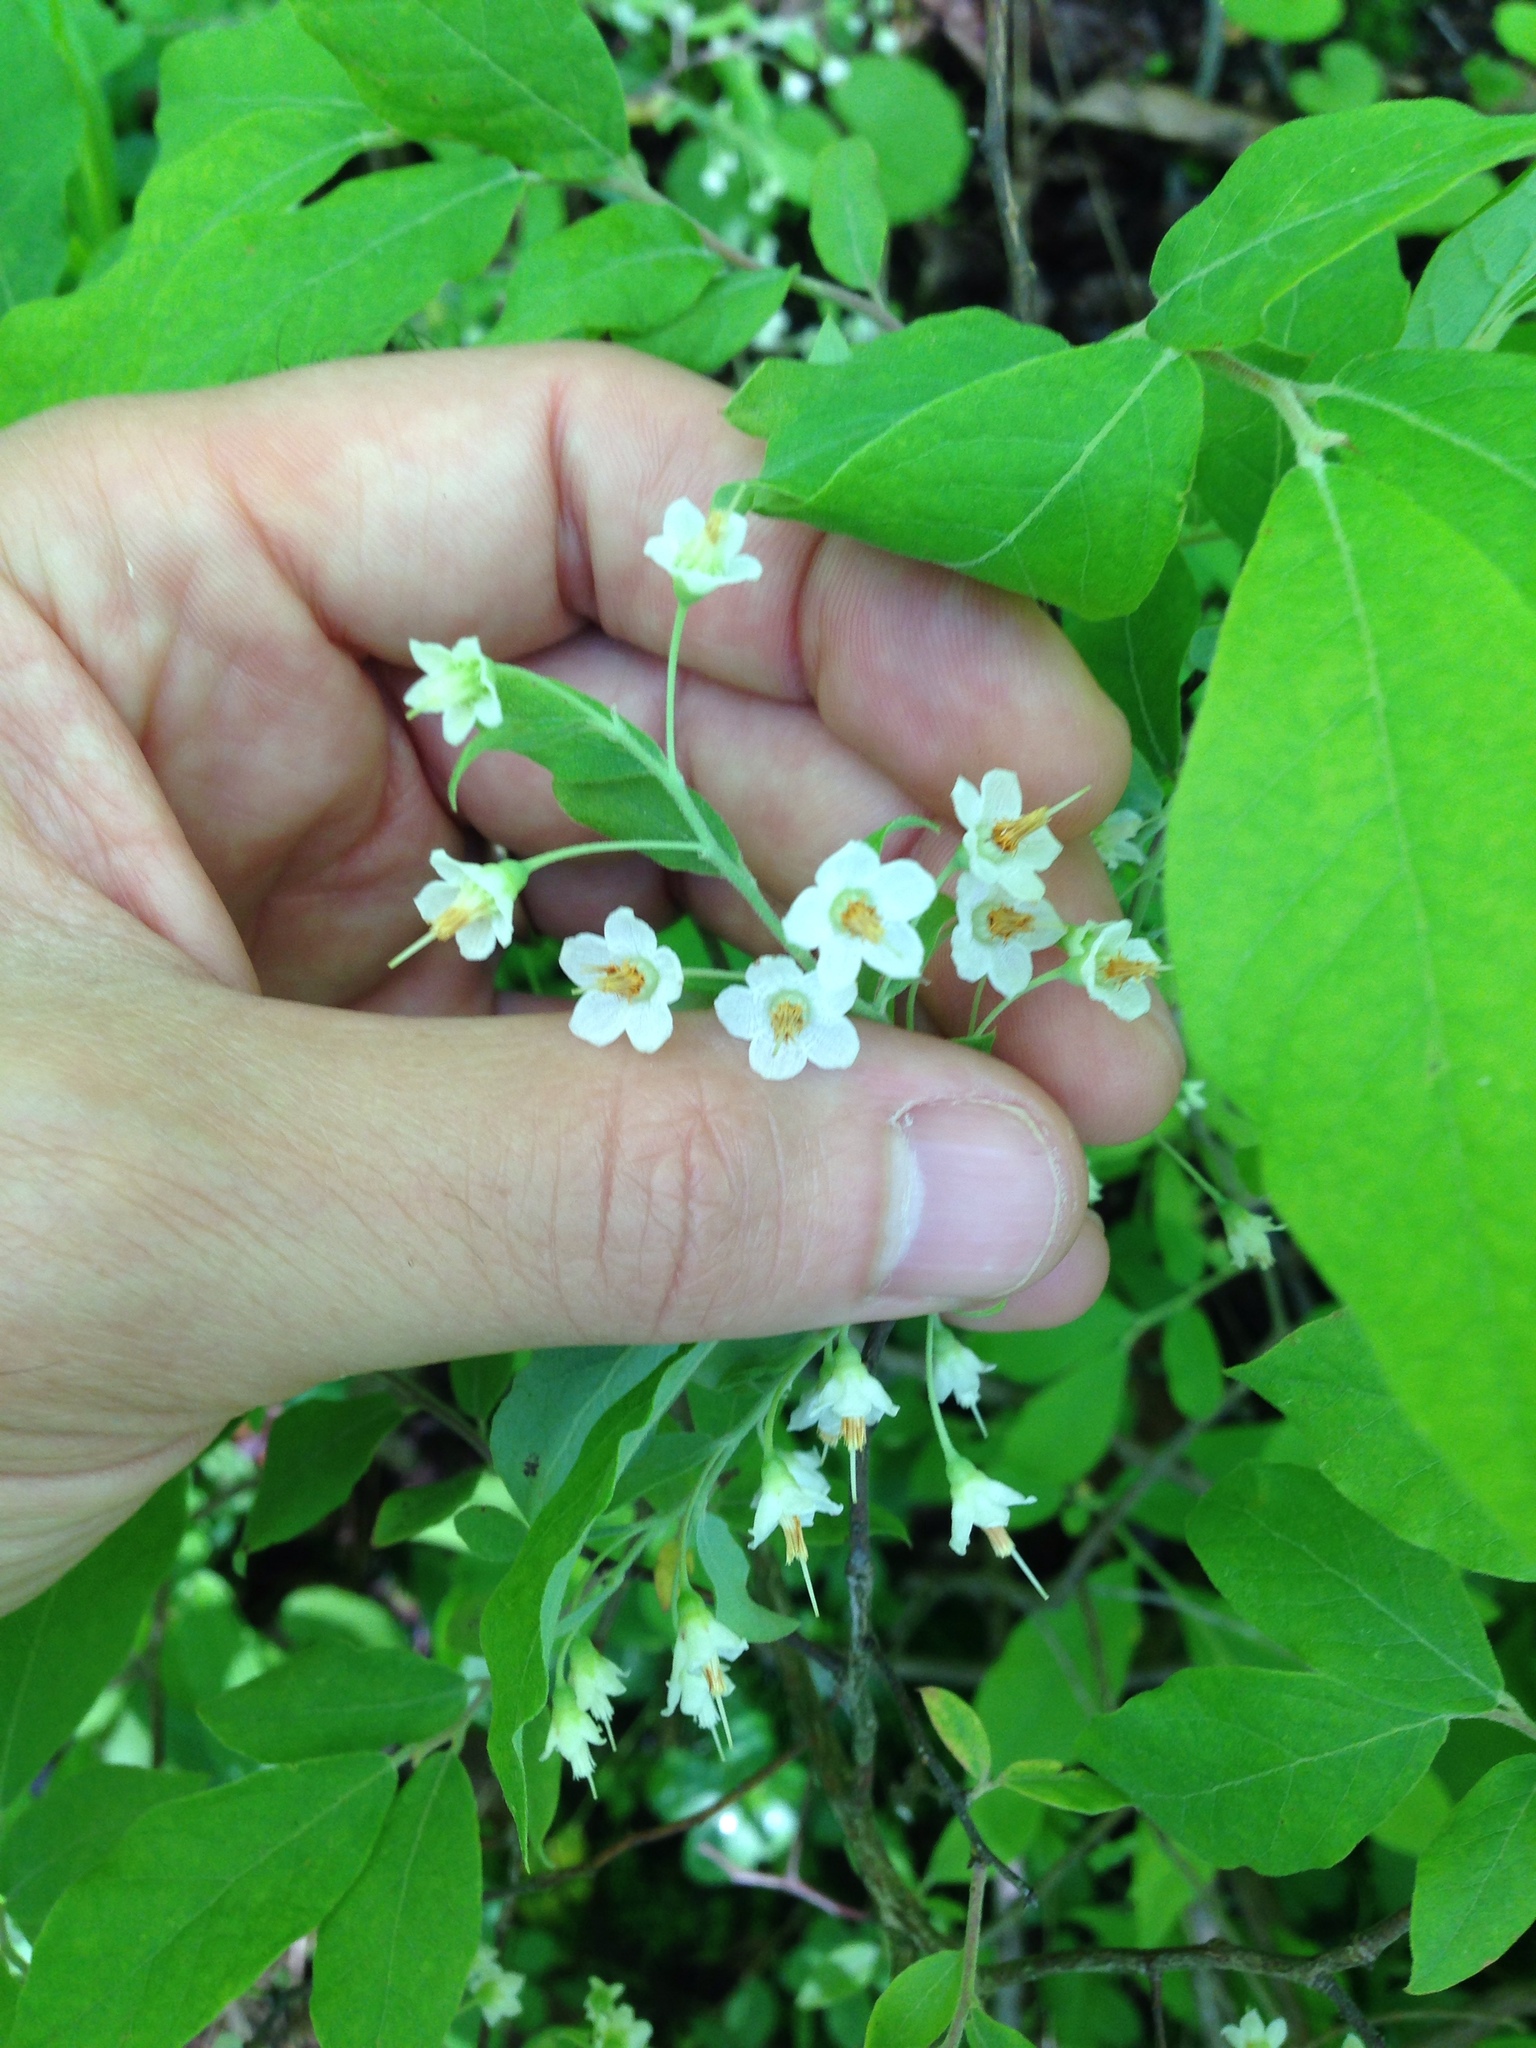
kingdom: Plantae
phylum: Tracheophyta
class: Magnoliopsida
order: Ericales
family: Ericaceae
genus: Vaccinium
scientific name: Vaccinium stamineum
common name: Deerberry
